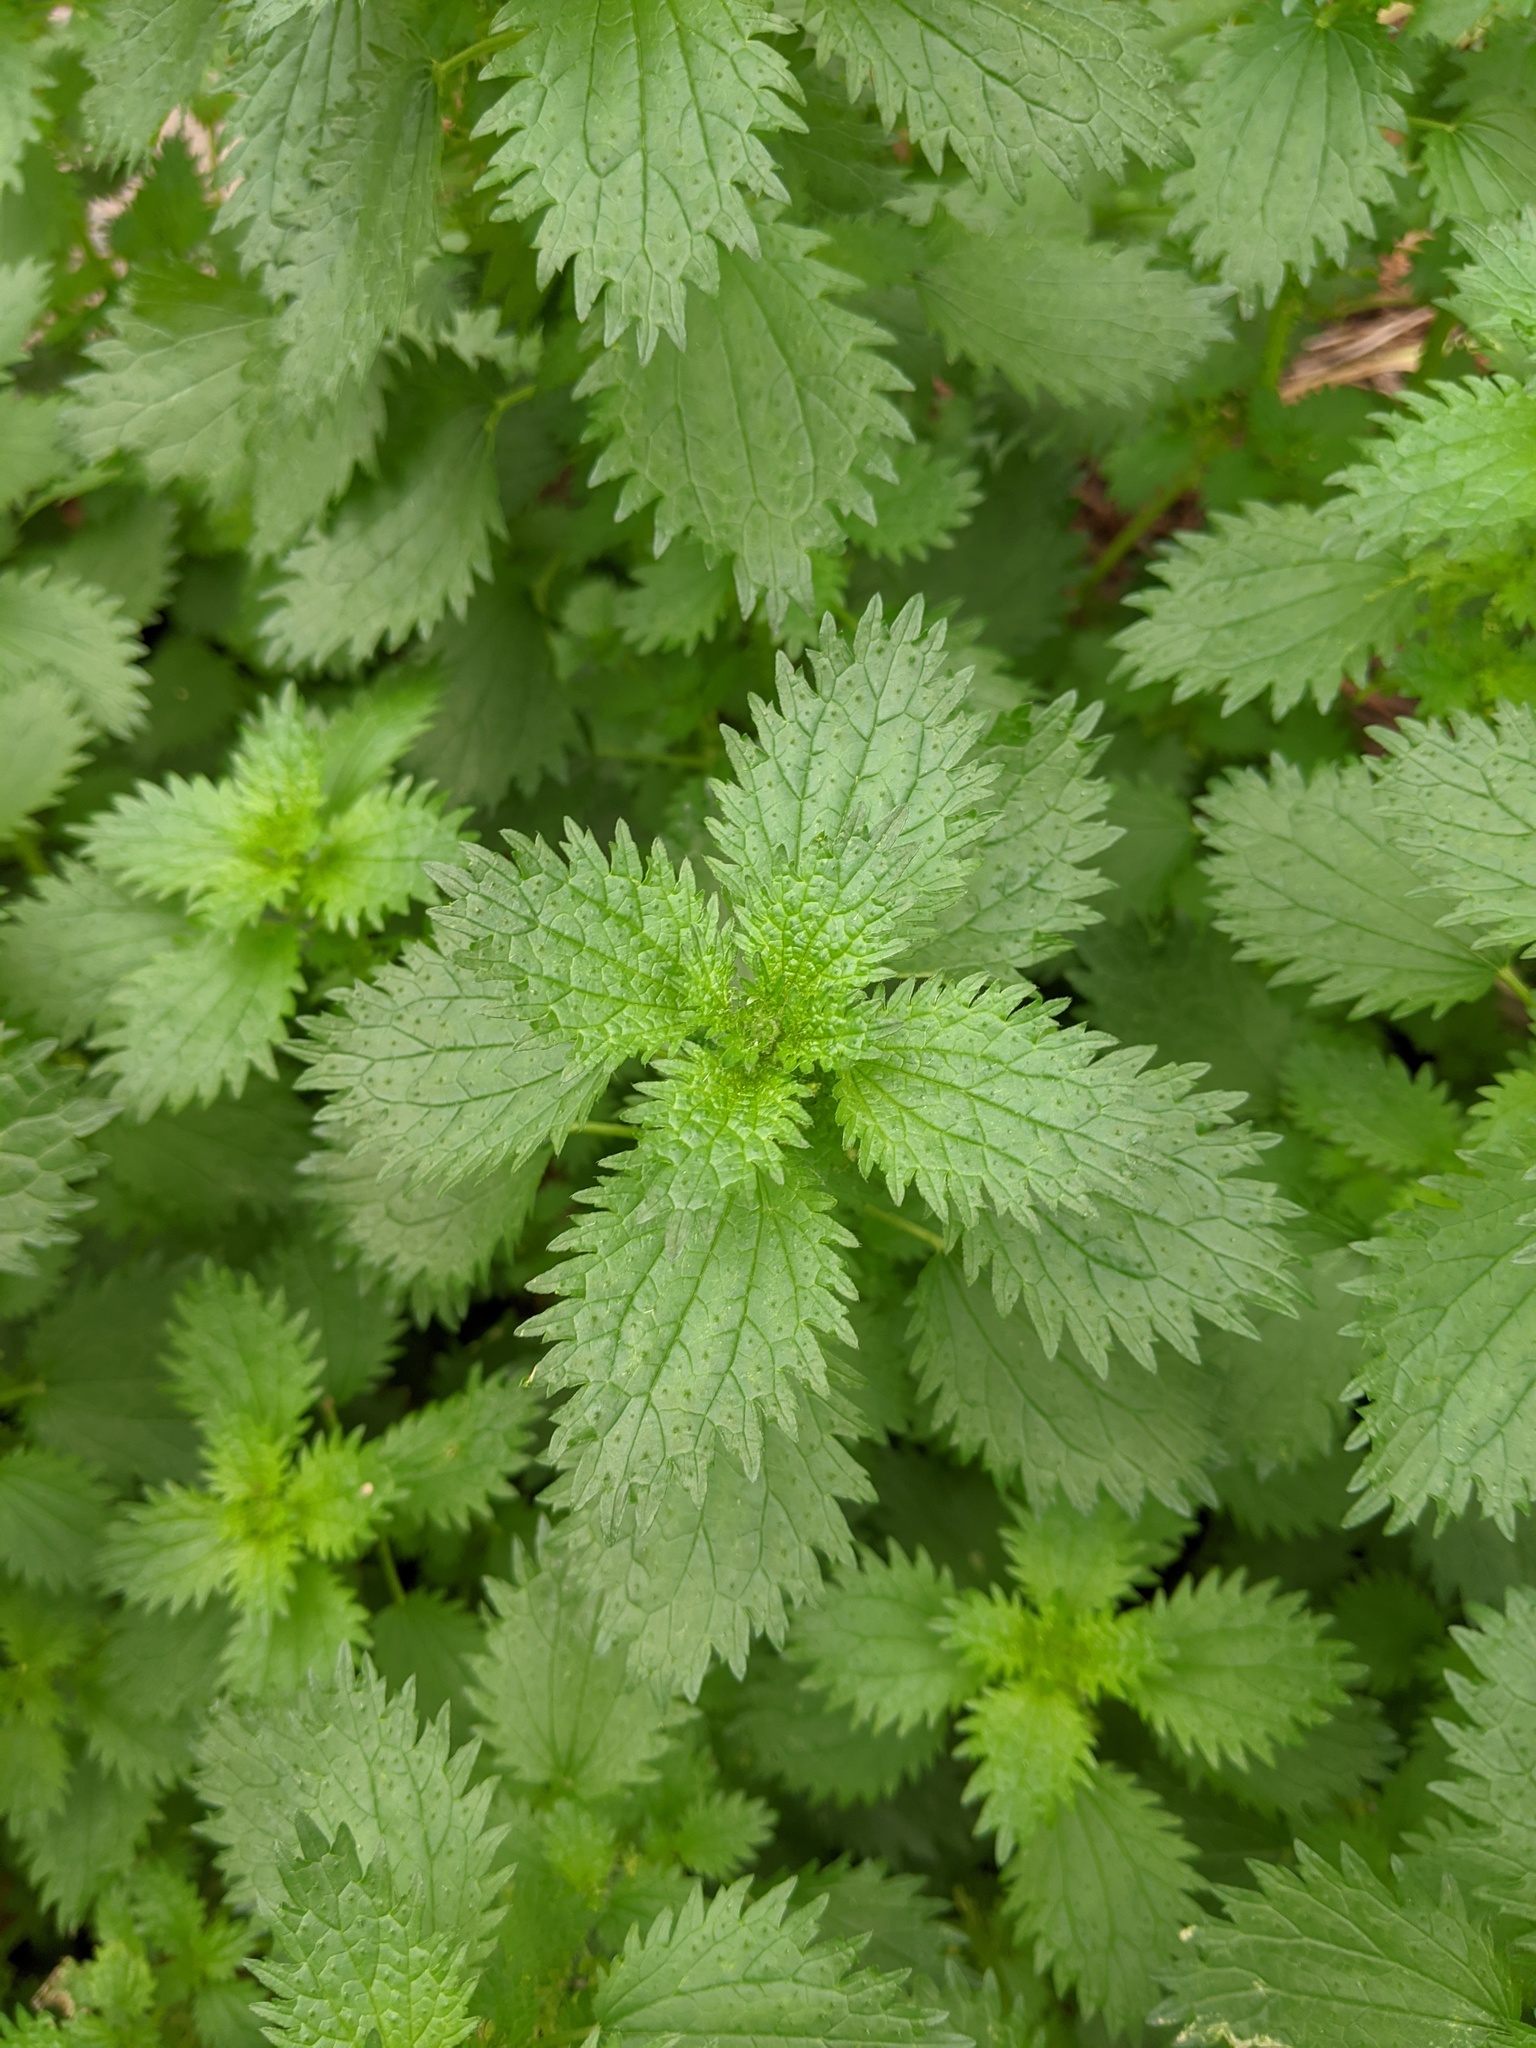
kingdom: Plantae
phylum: Tracheophyta
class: Magnoliopsida
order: Rosales
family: Urticaceae
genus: Urtica
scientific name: Urtica urens
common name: Dwarf nettle
